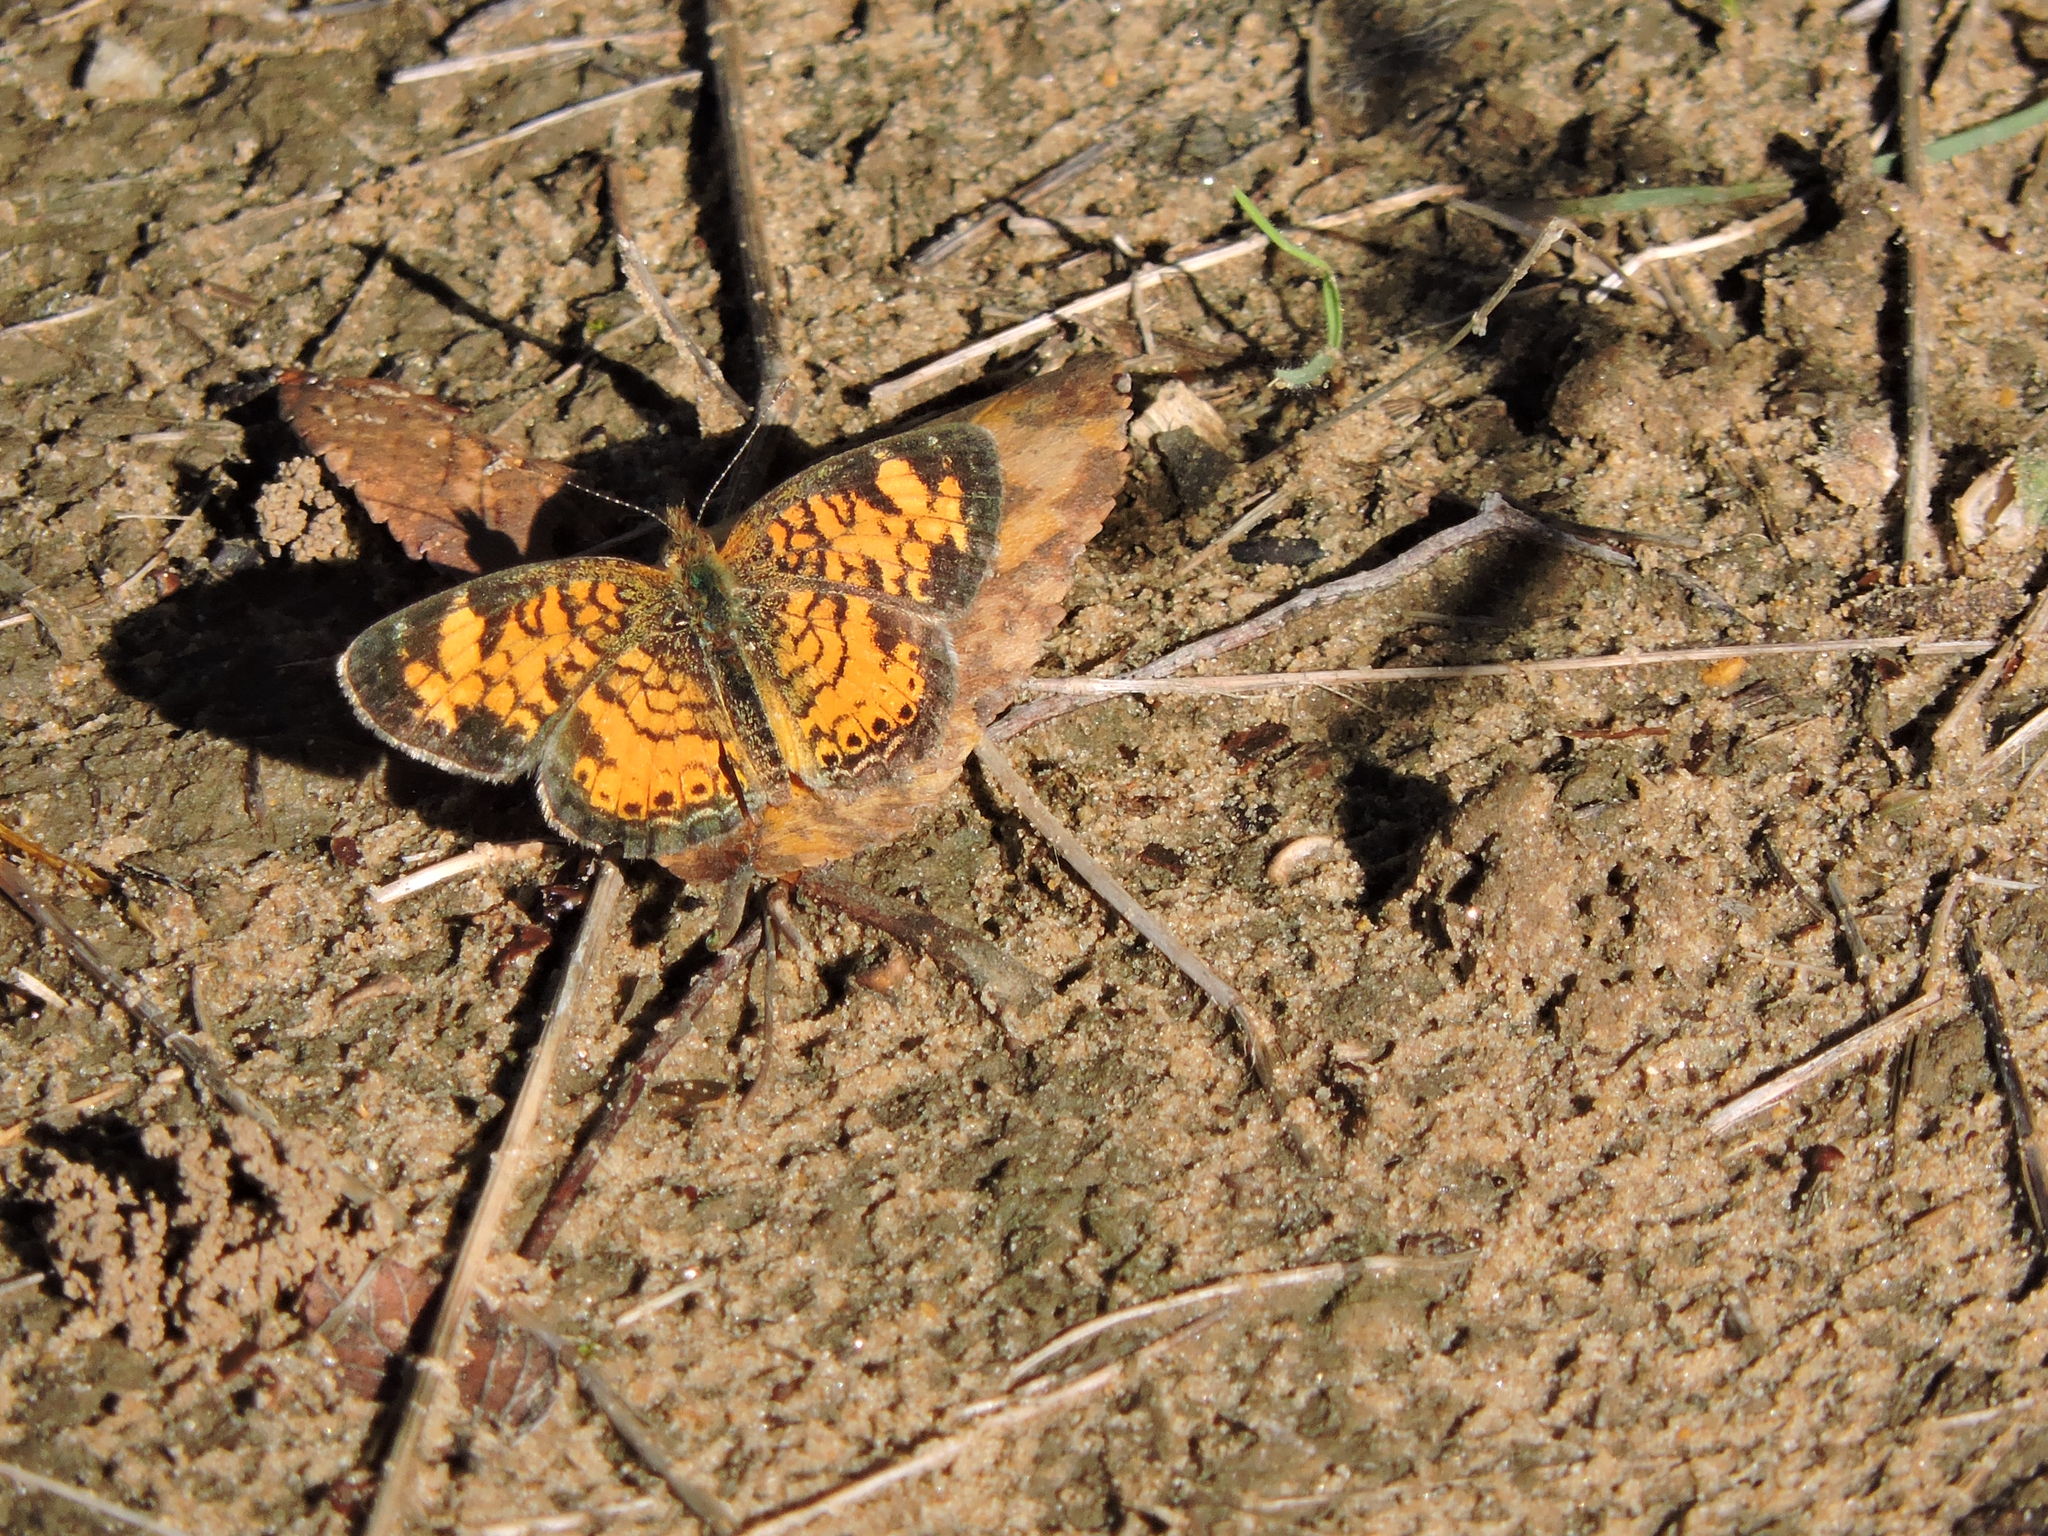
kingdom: Animalia
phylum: Arthropoda
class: Insecta
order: Lepidoptera
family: Nymphalidae
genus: Phyciodes
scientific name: Phyciodes tharos
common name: Pearl crescent
